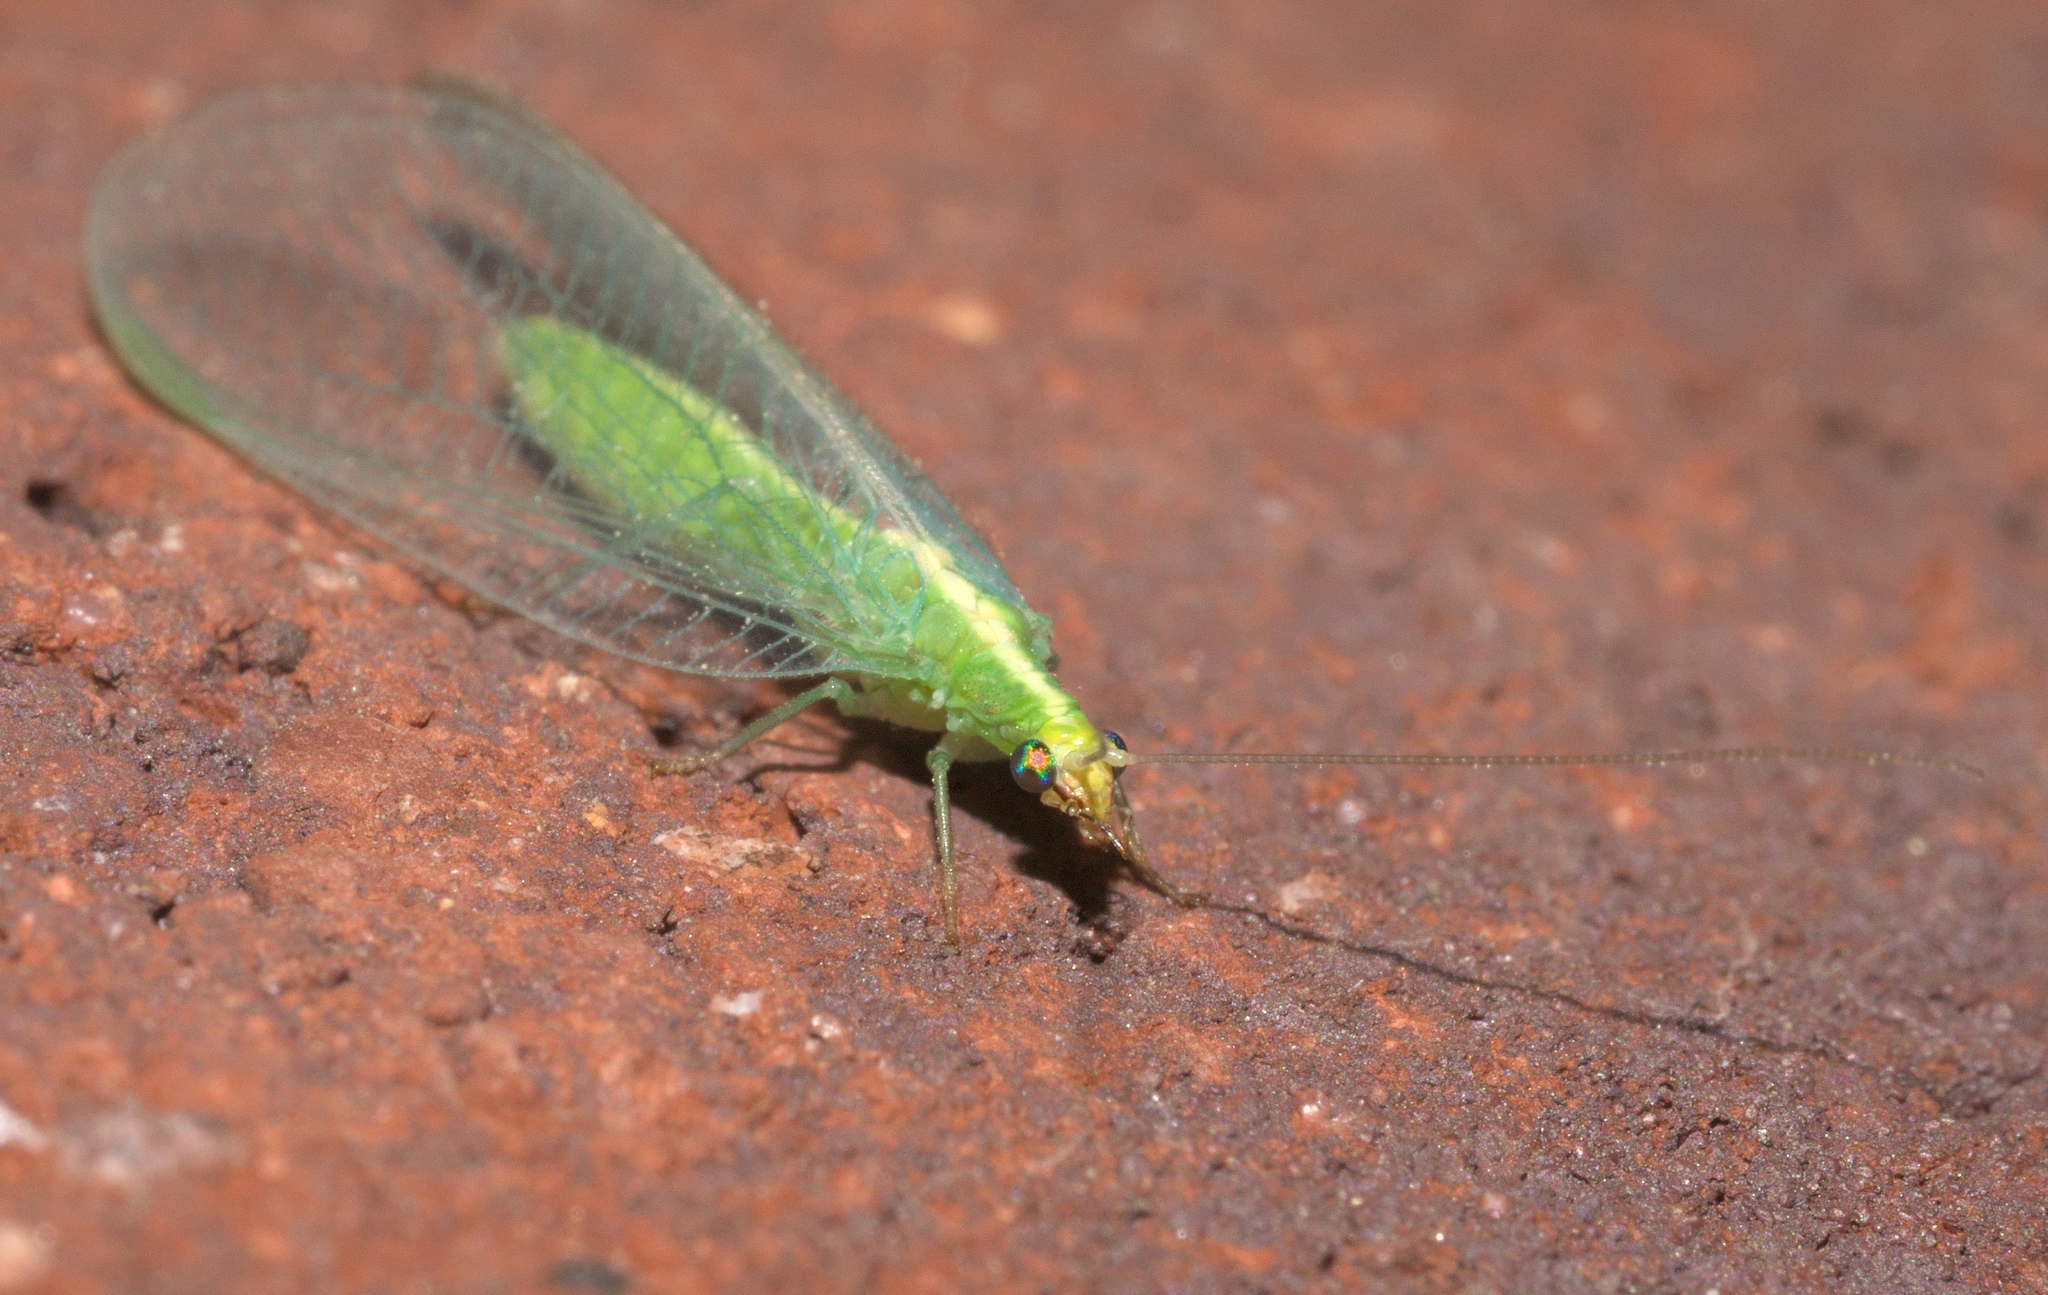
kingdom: Animalia
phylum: Arthropoda
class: Insecta
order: Neuroptera
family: Chrysopidae
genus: Chrysoperla
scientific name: Chrysoperla
